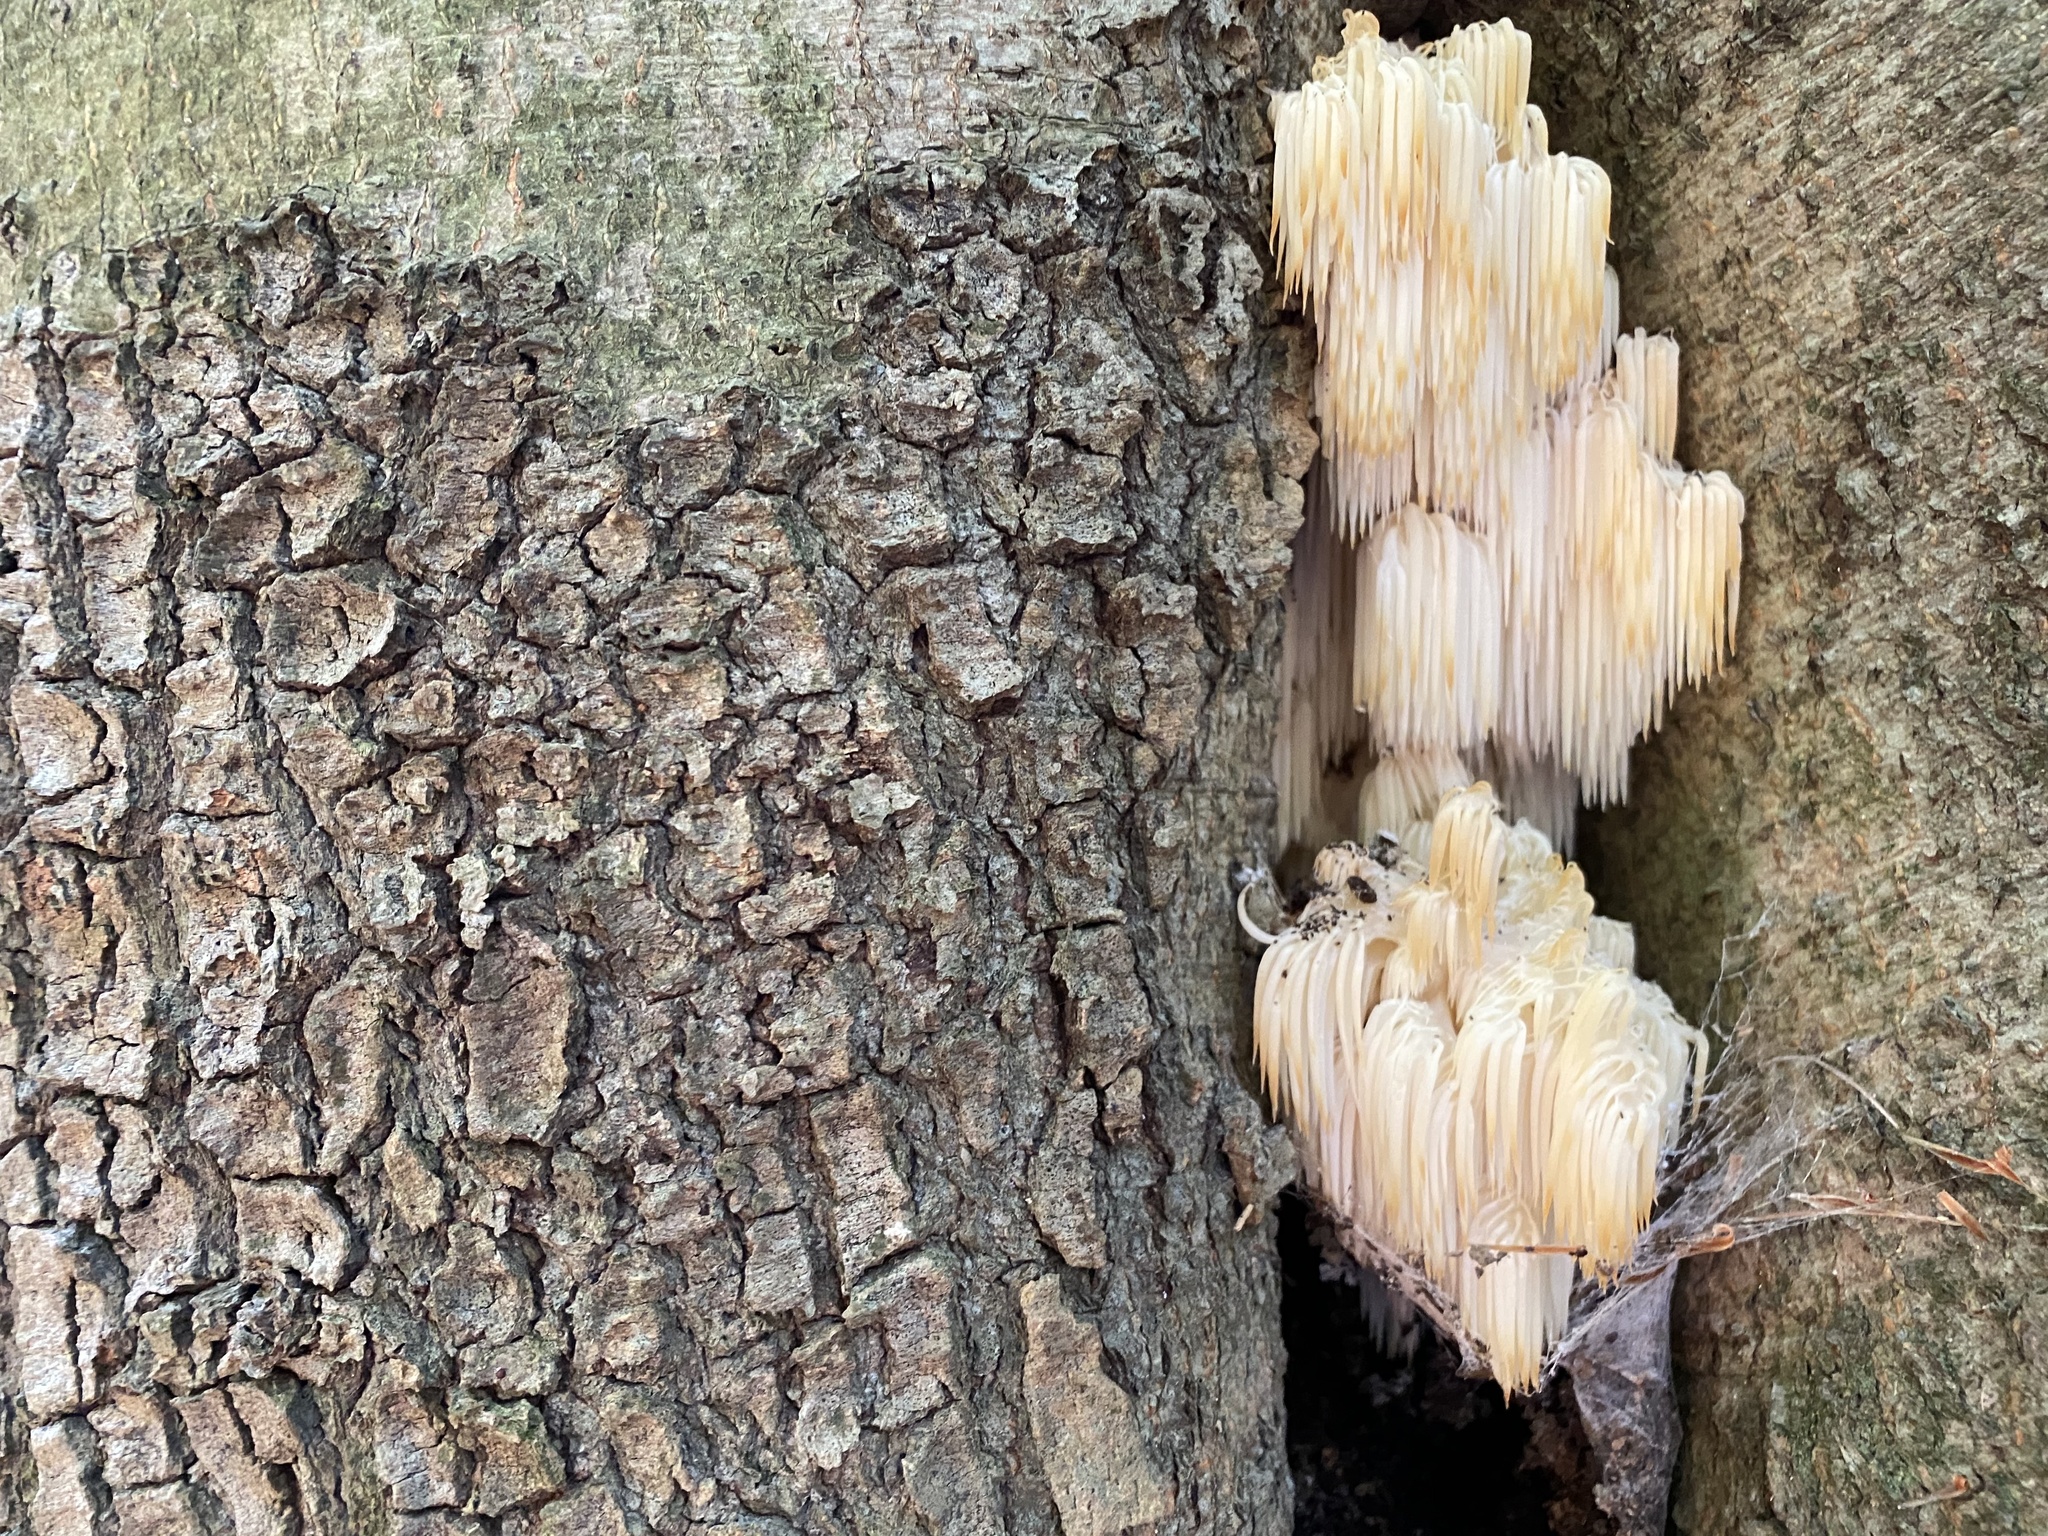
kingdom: Fungi
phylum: Basidiomycota
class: Agaricomycetes
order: Russulales
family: Hericiaceae
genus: Hericium
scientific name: Hericium americanum
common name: Bear's head tooth
